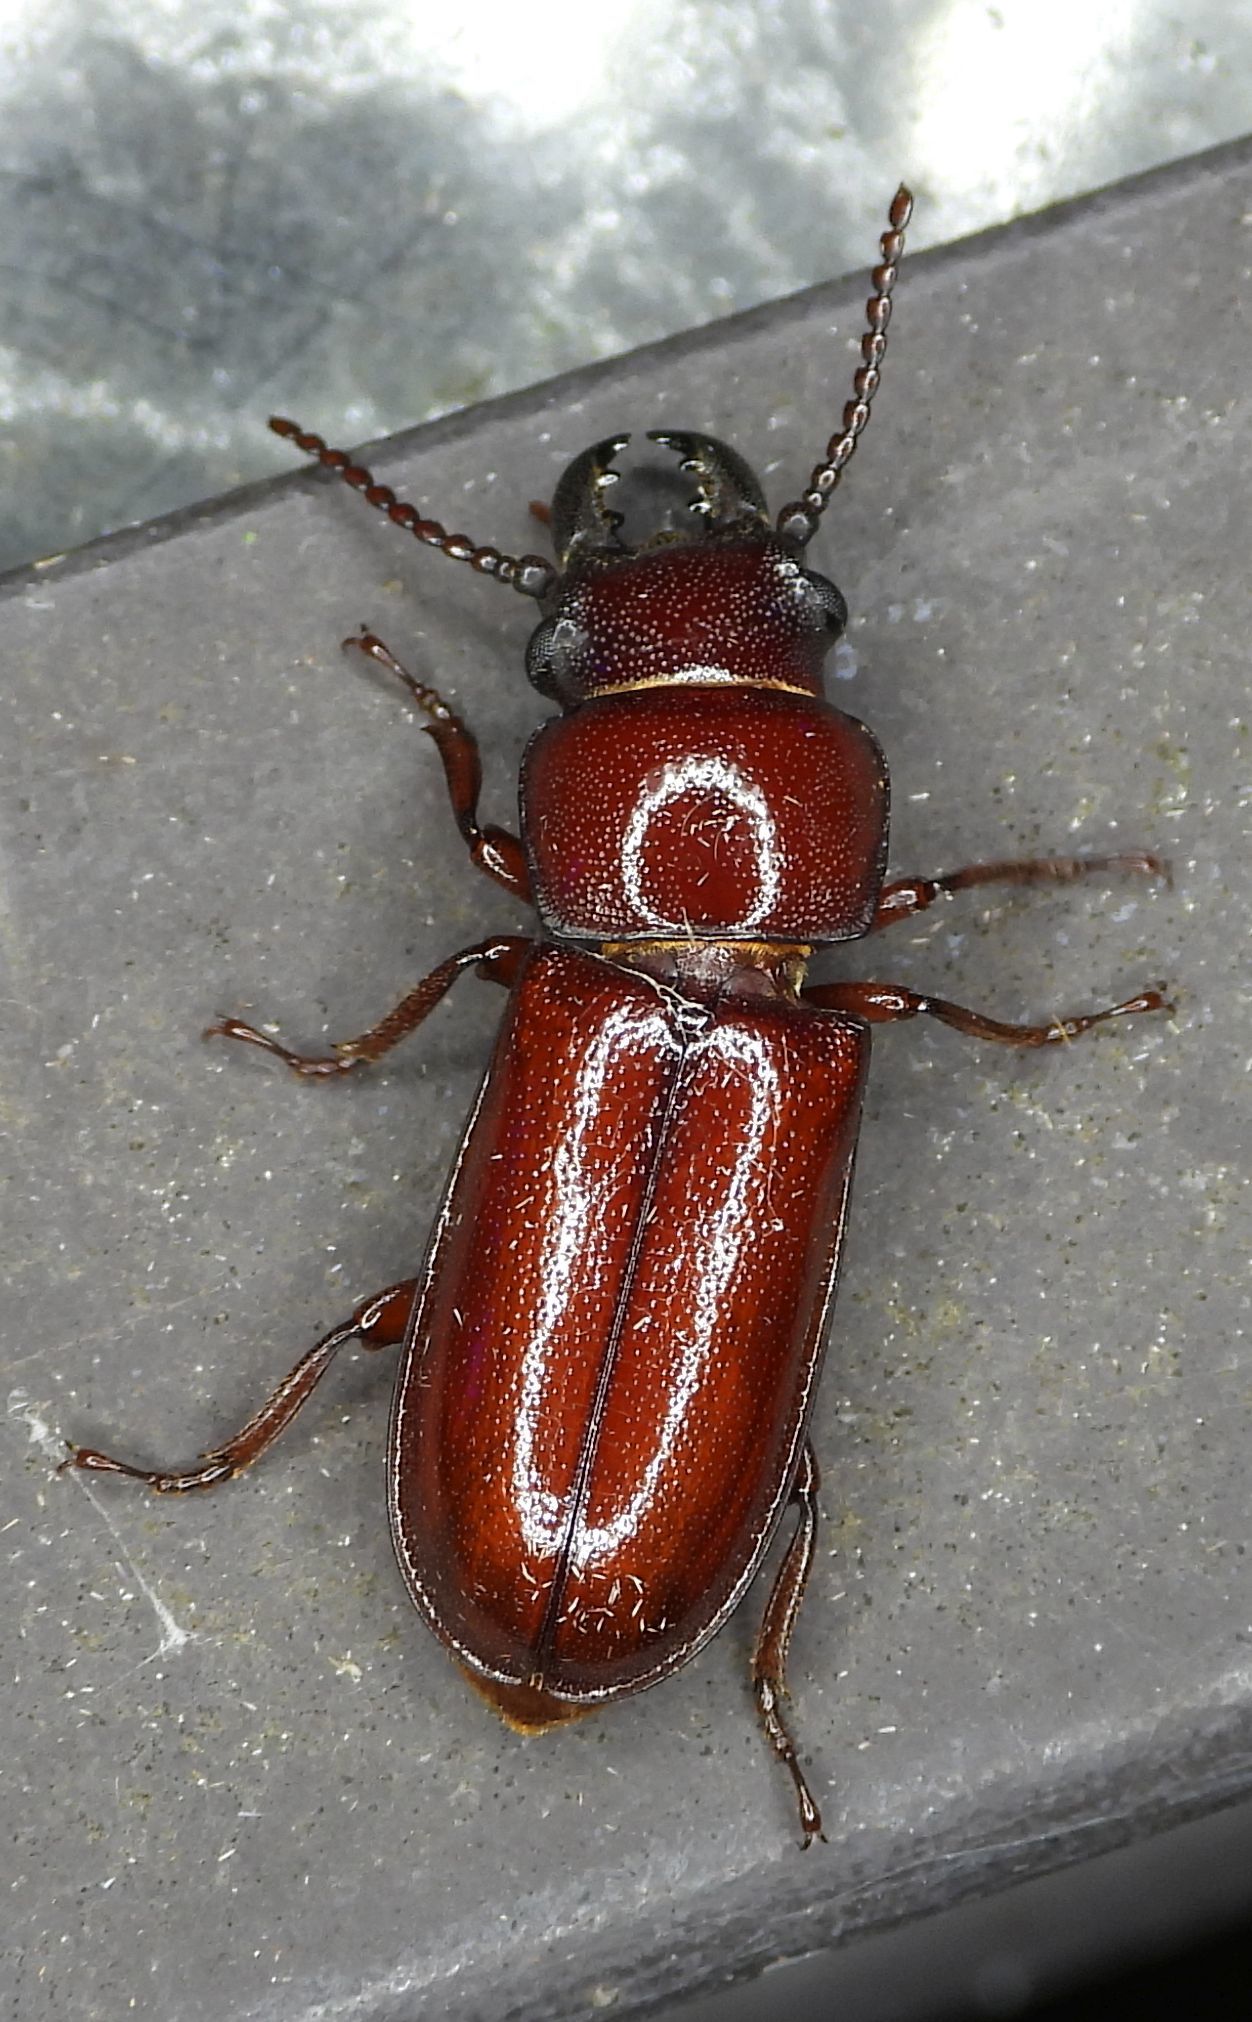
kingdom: Animalia
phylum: Arthropoda
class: Insecta
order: Coleoptera
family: Cerambycidae
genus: Neandra
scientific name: Neandra brunnea
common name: Pole borer
